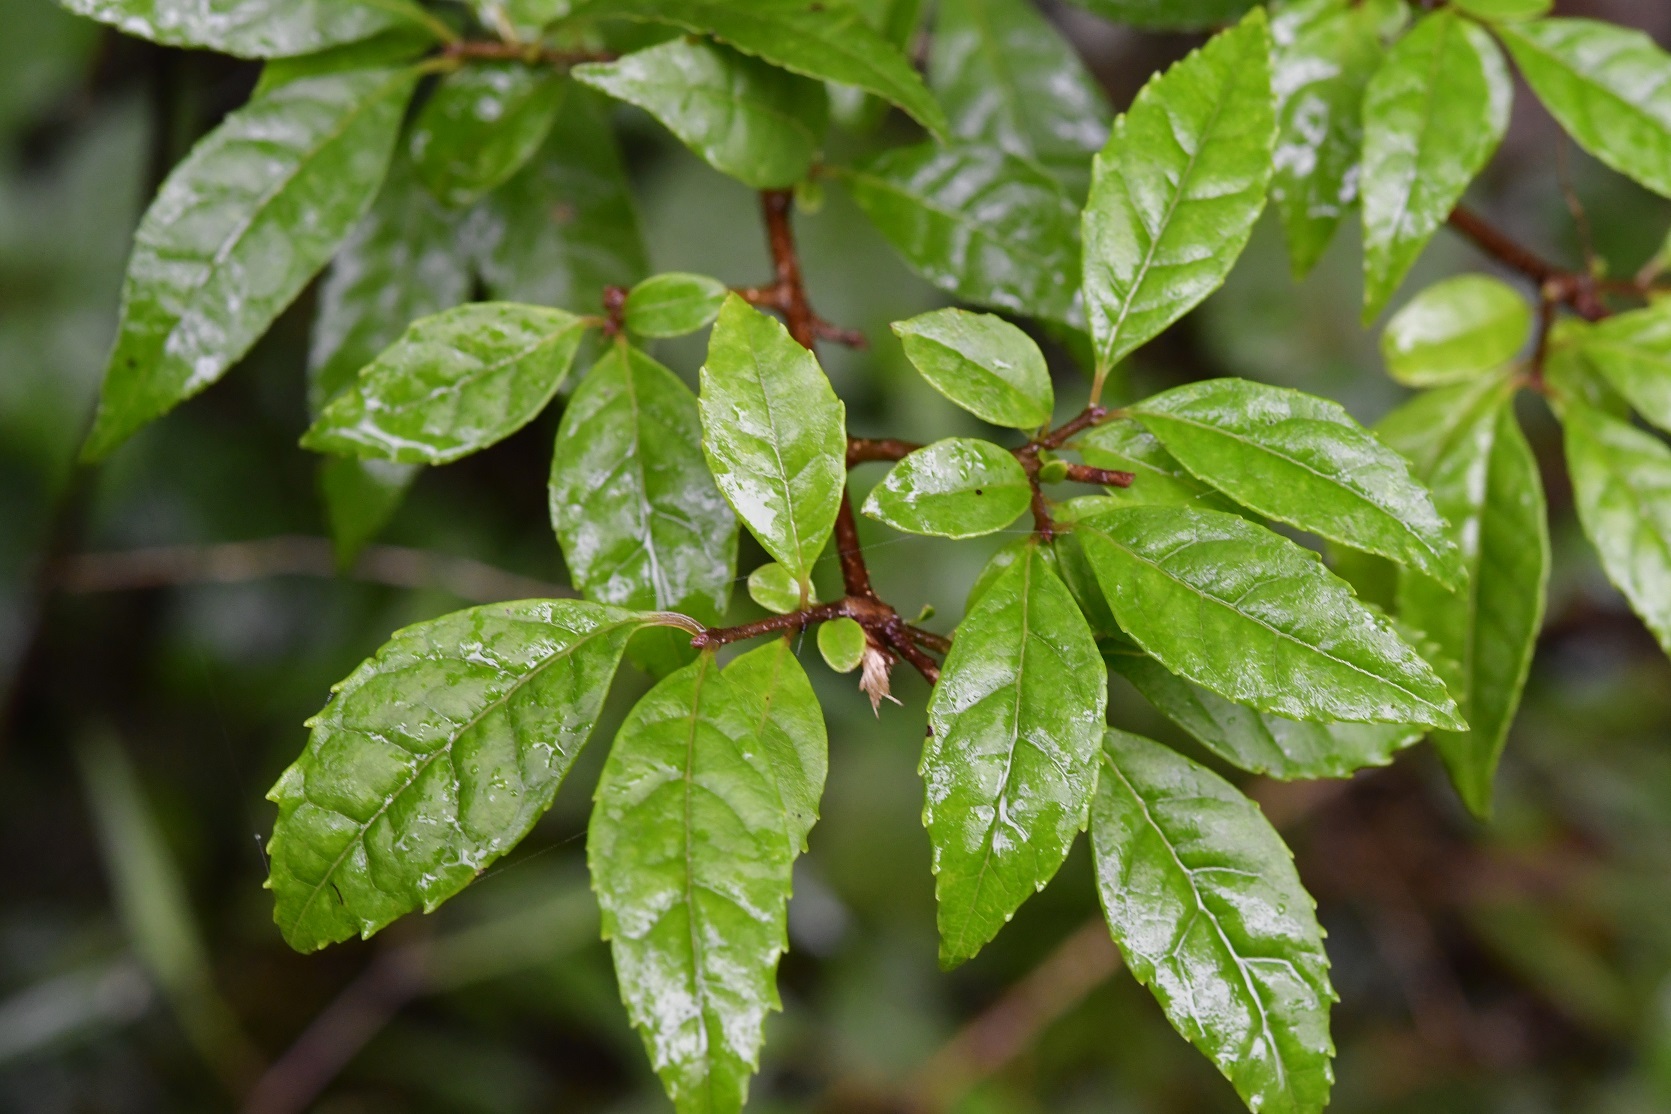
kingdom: Plantae
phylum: Tracheophyta
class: Magnoliopsida
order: Celastrales
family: Celastraceae
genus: Maytenus
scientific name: Maytenus repanda
